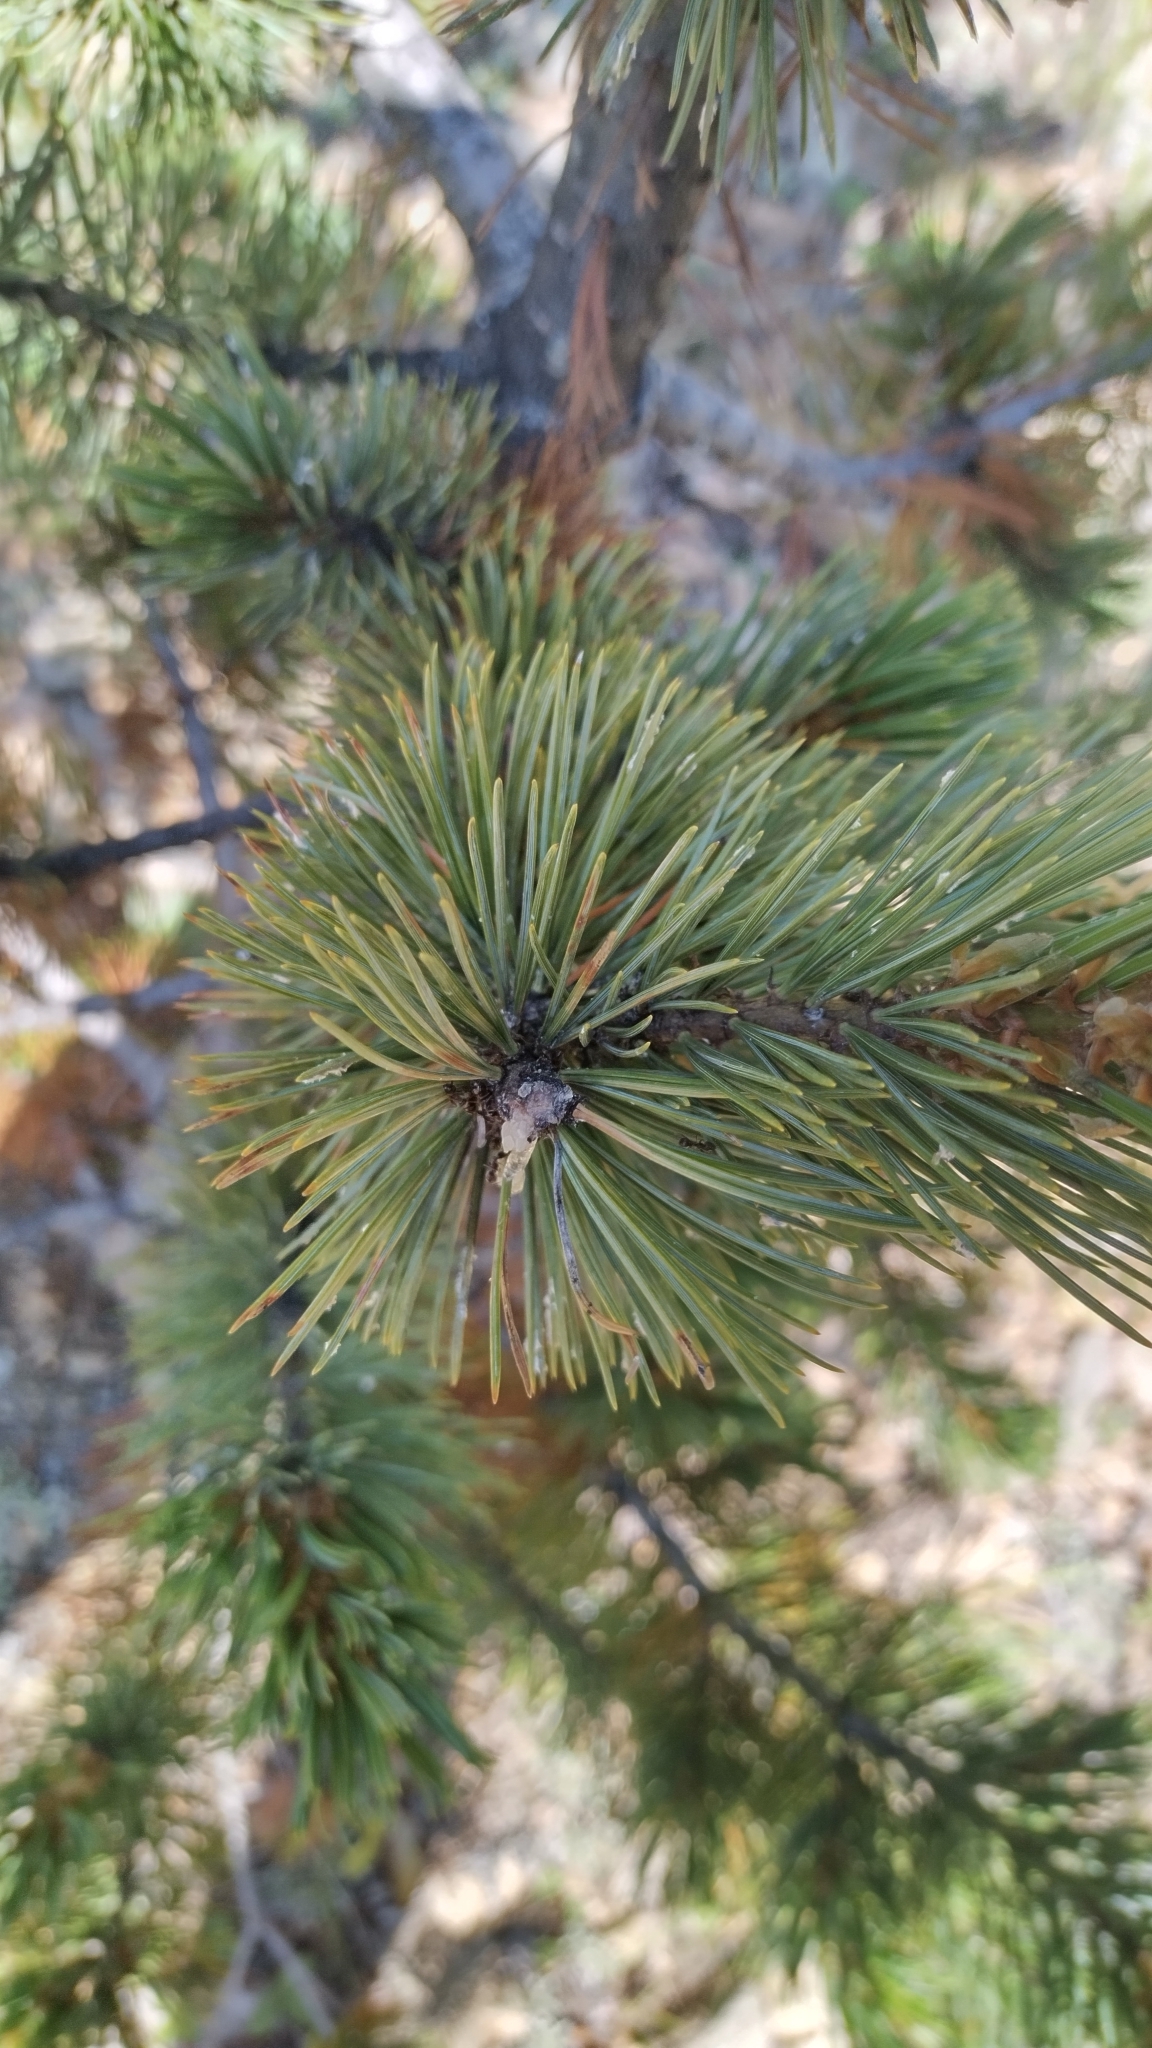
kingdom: Plantae
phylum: Tracheophyta
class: Pinopsida
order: Pinales
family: Pinaceae
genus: Pinus
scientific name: Pinus aristata
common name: Colorado bristlecone pine
